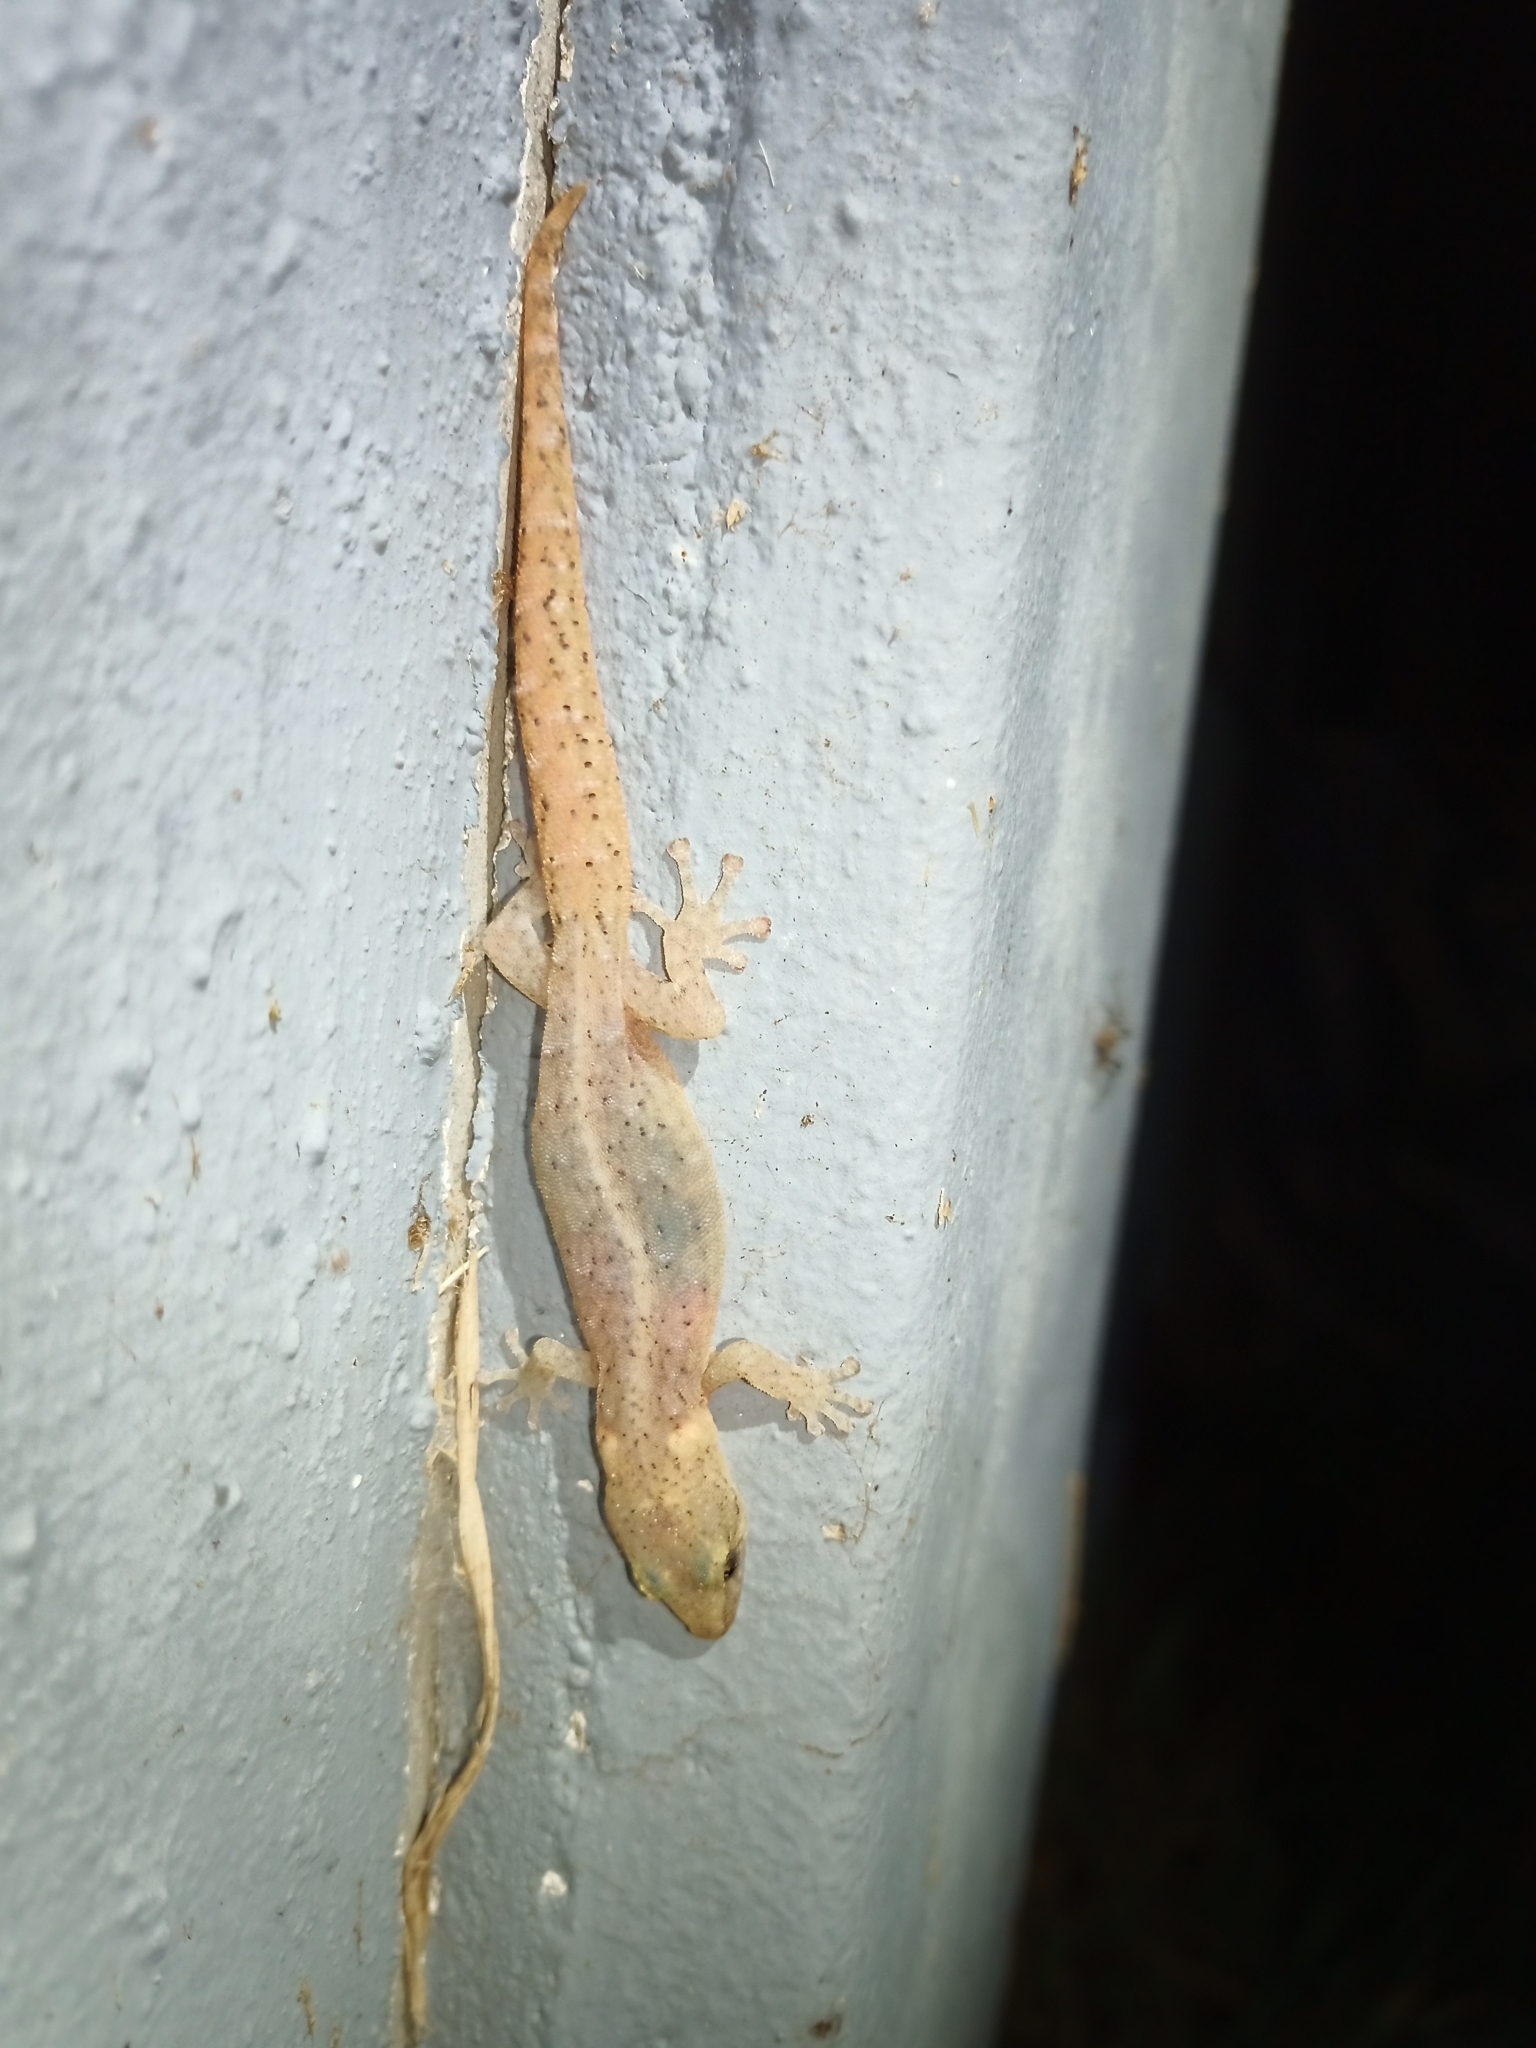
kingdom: Animalia
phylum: Chordata
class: Squamata
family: Gekkonidae
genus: Afrogecko
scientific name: Afrogecko porphyreus
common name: Marbled leaf-toed gecko
